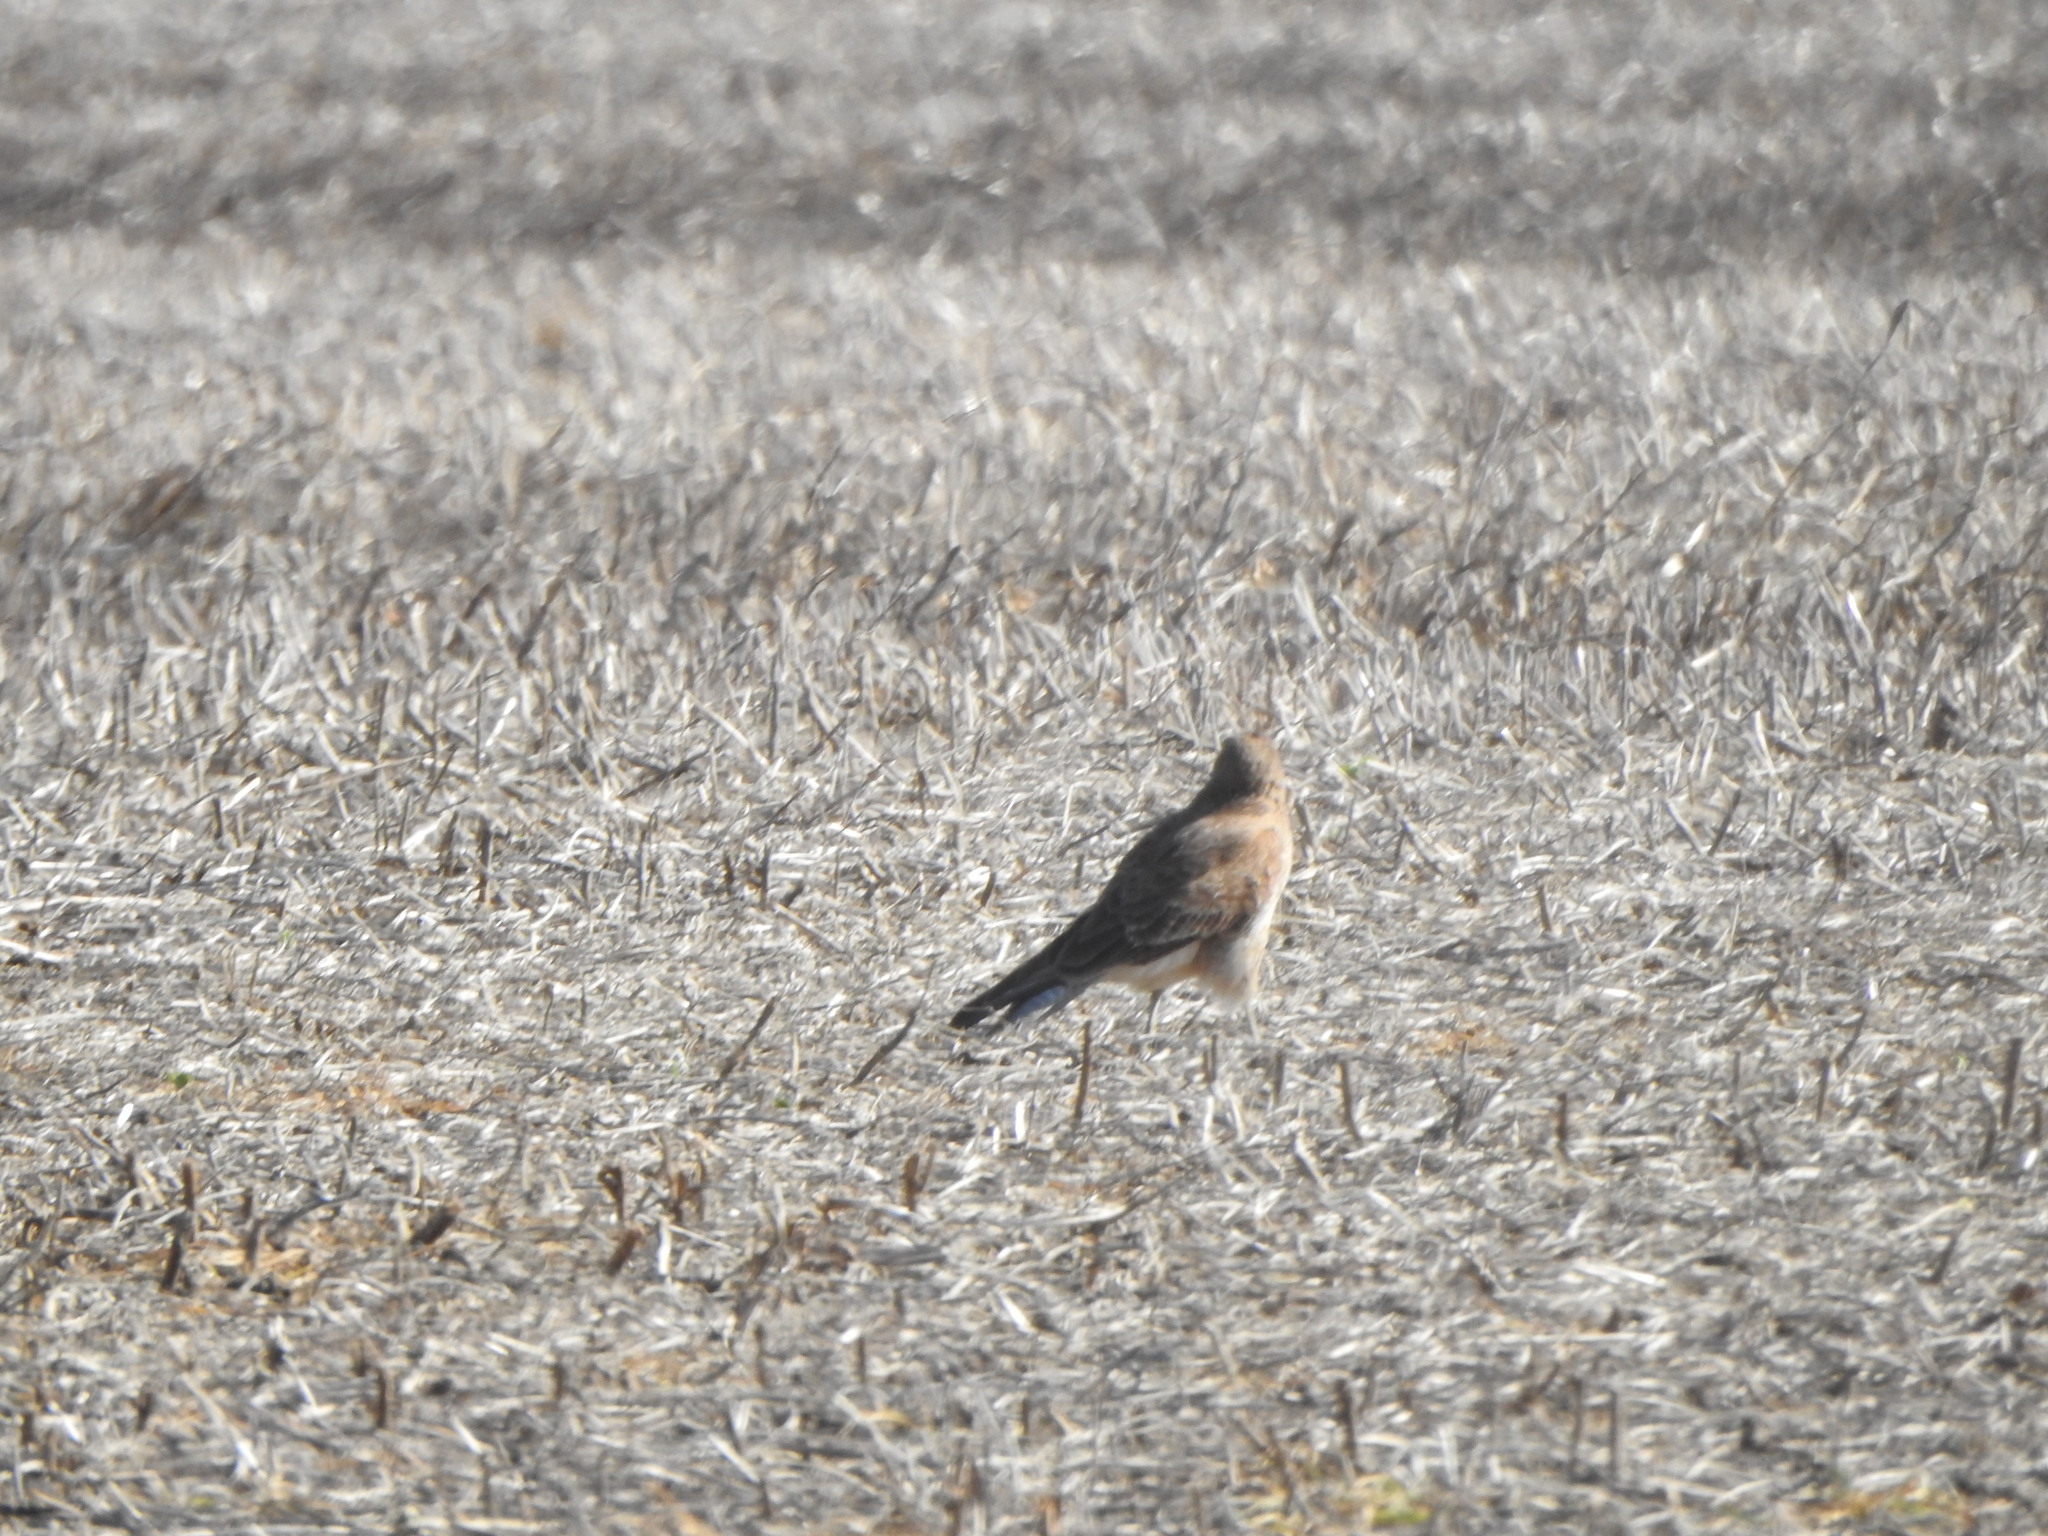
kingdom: Animalia
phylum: Chordata
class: Aves
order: Falconiformes
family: Falconidae
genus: Daptrius
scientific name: Daptrius
